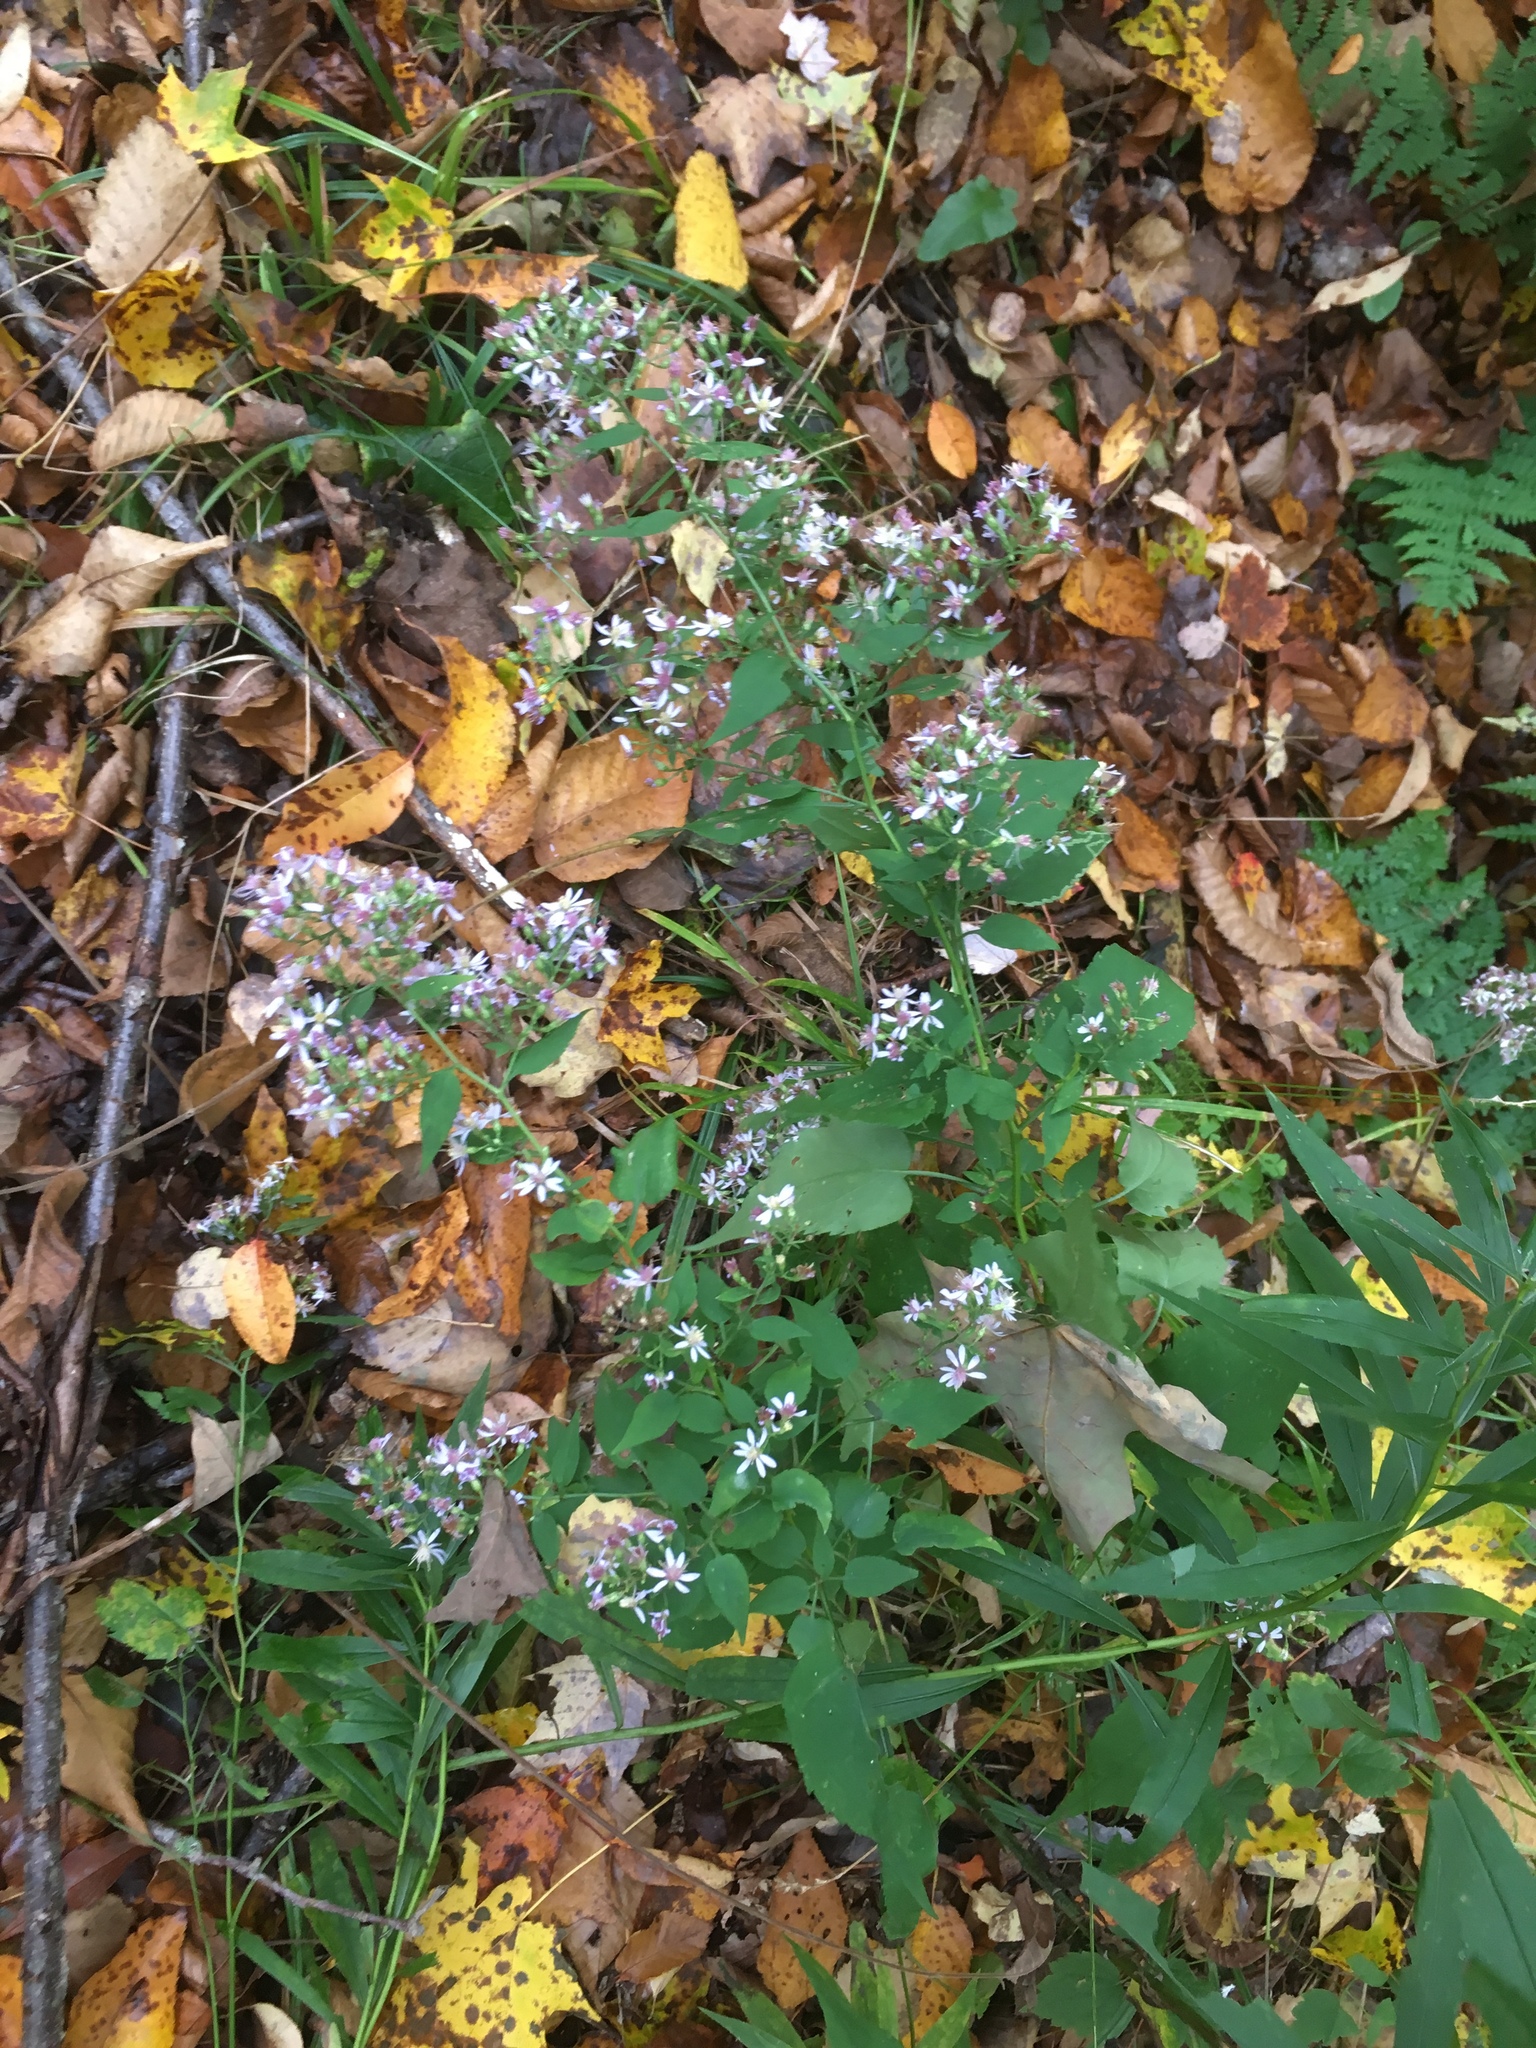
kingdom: Plantae
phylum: Tracheophyta
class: Magnoliopsida
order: Asterales
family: Asteraceae
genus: Symphyotrichum
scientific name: Symphyotrichum cordifolium
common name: Beeweed
